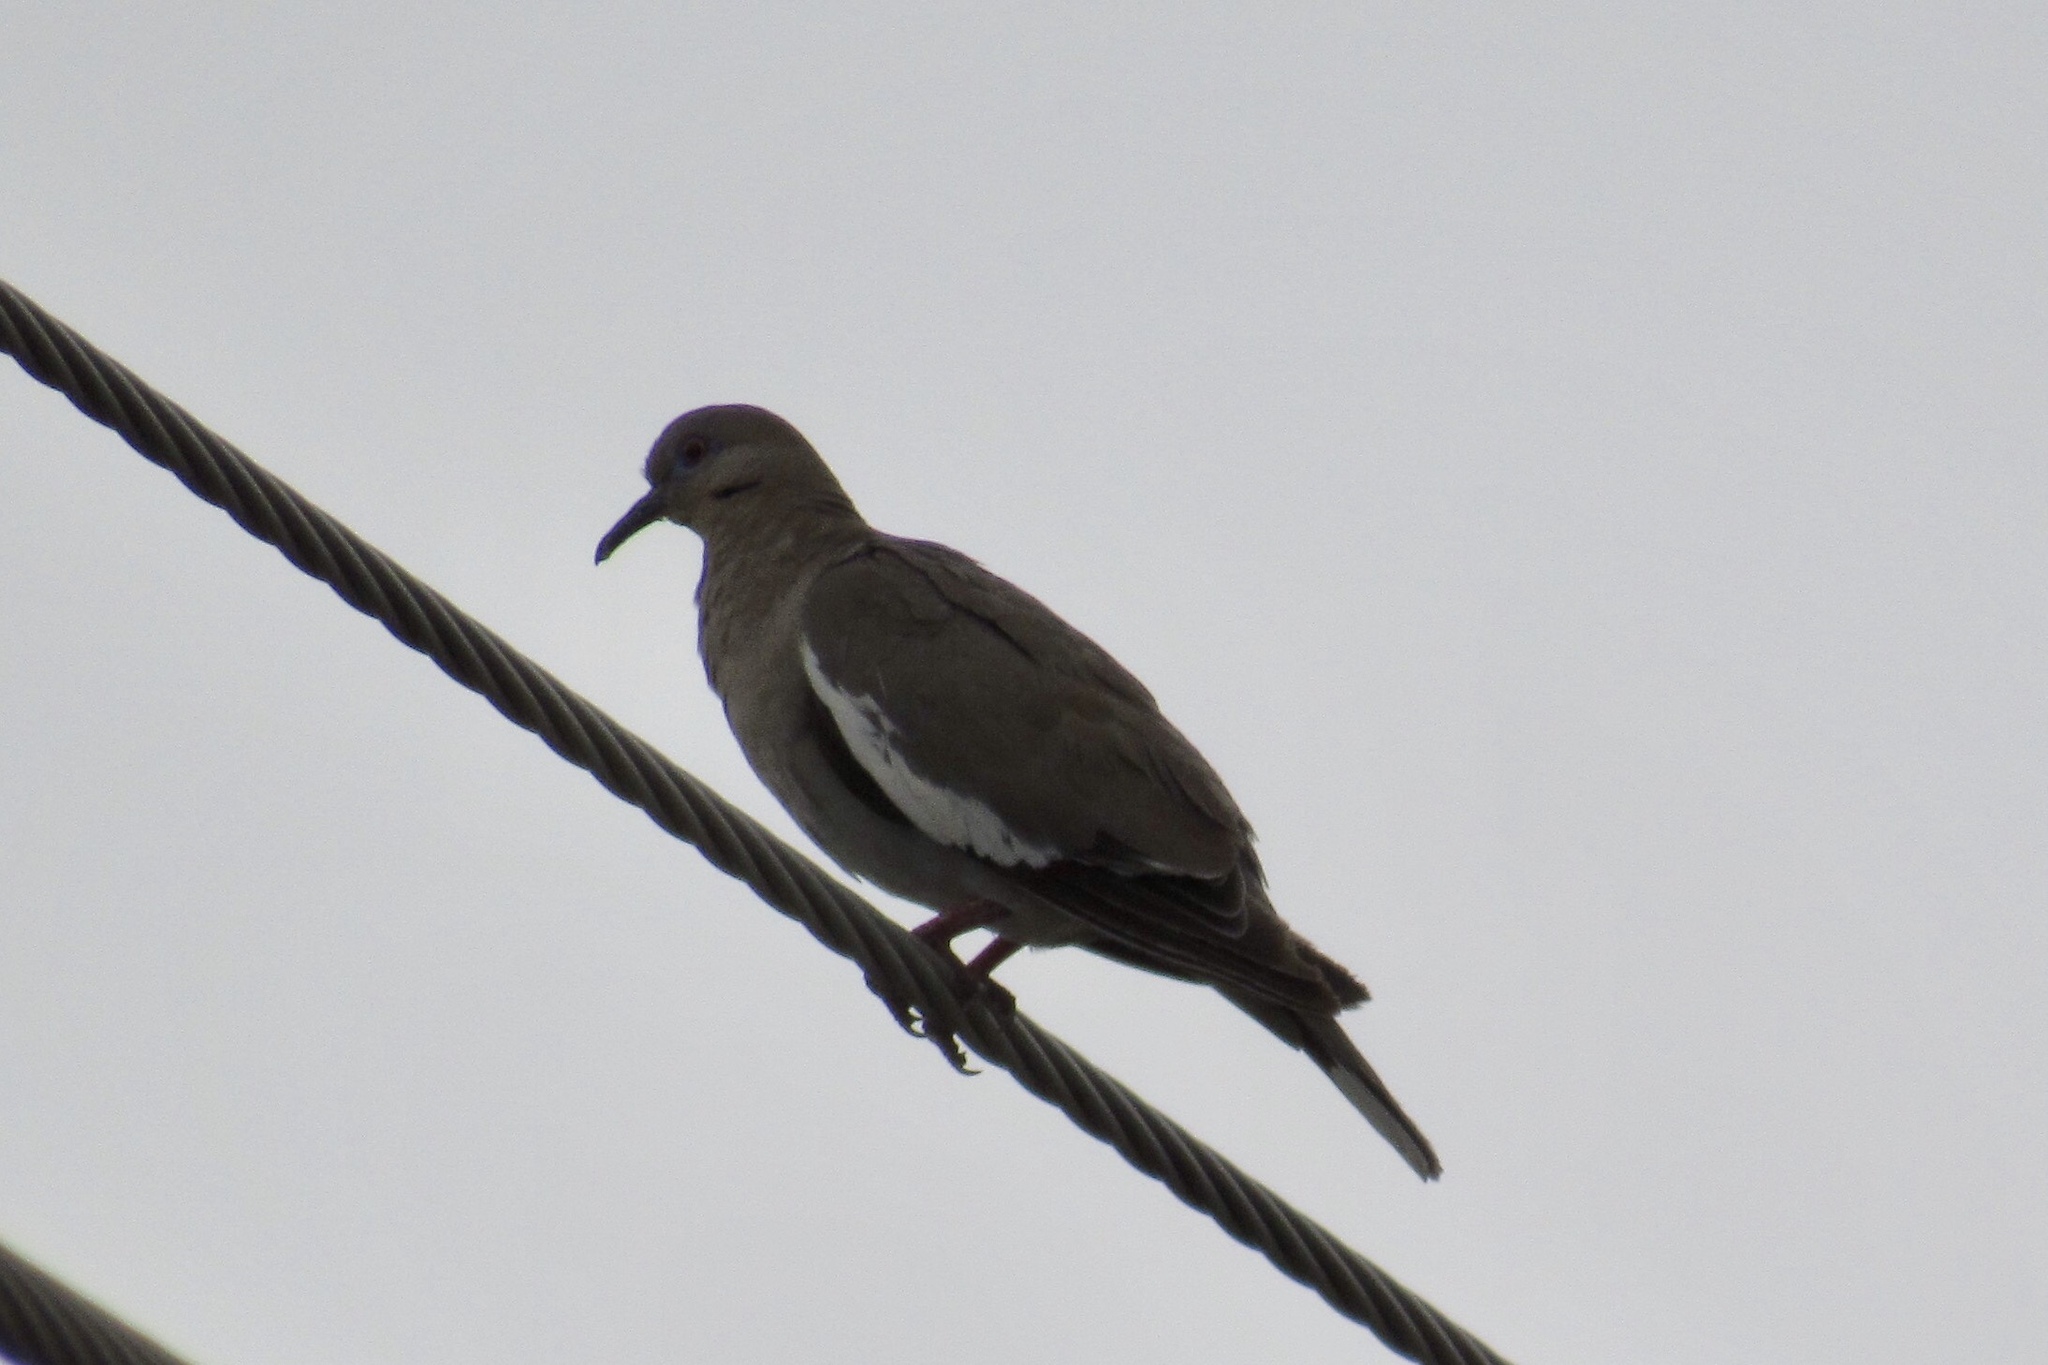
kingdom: Animalia
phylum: Chordata
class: Aves
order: Columbiformes
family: Columbidae
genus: Zenaida
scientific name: Zenaida asiatica
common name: White-winged dove
